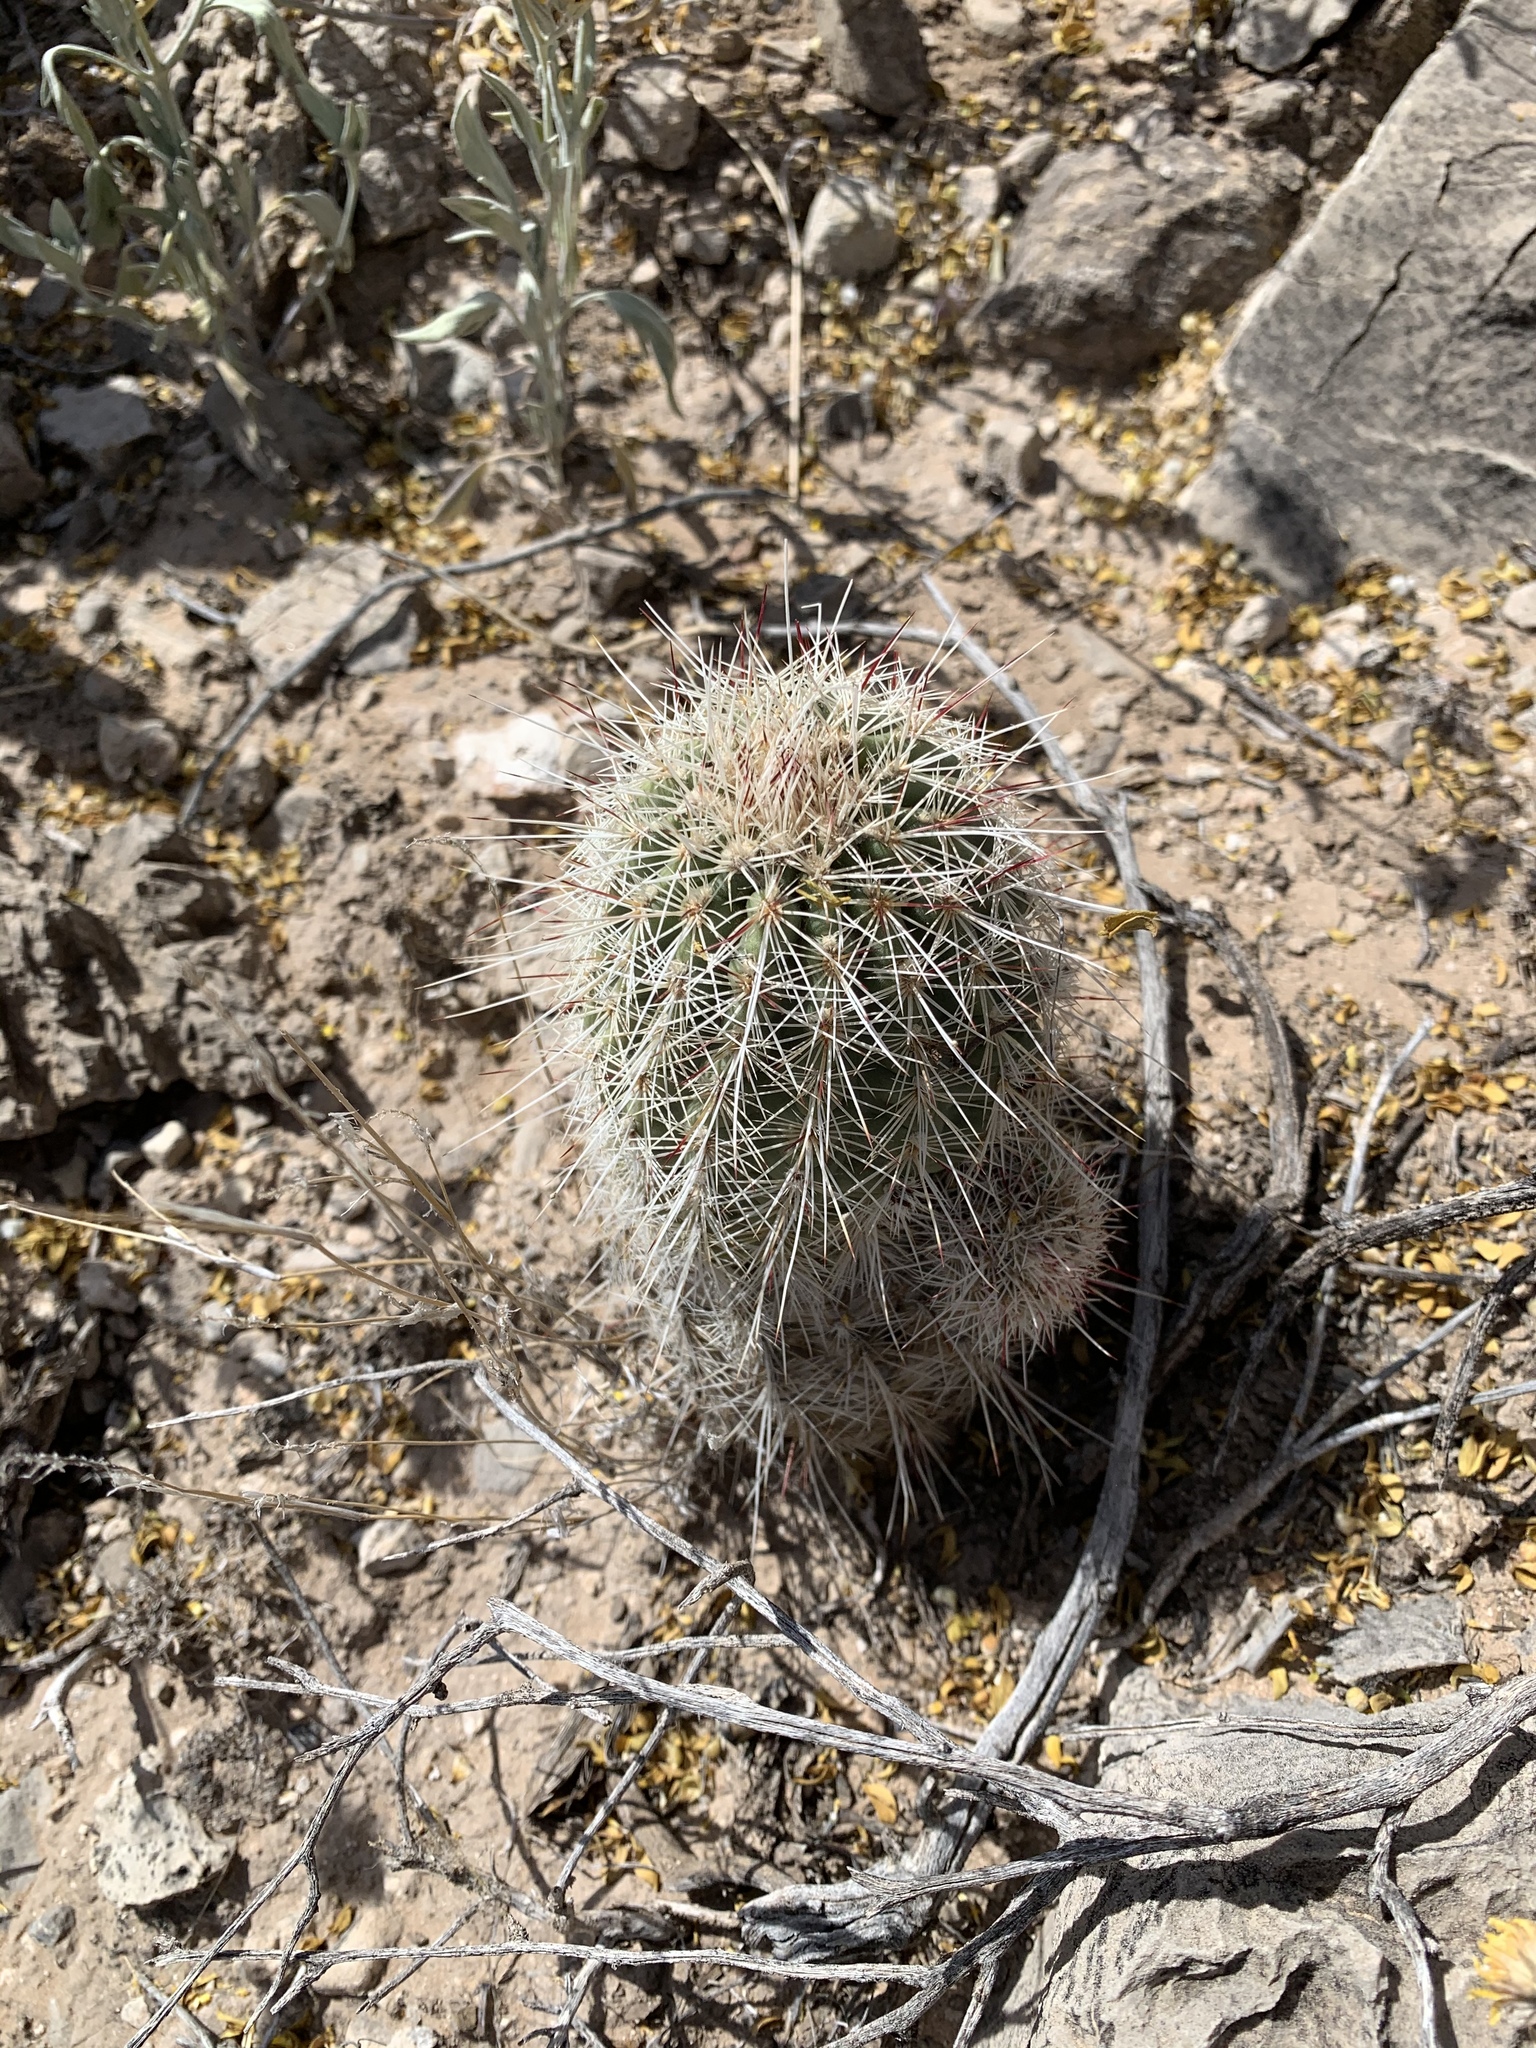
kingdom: Plantae
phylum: Tracheophyta
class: Magnoliopsida
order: Caryophyllales
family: Cactaceae
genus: Echinocereus
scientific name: Echinocereus viridiflorus
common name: Nylon hedgehog cactus
